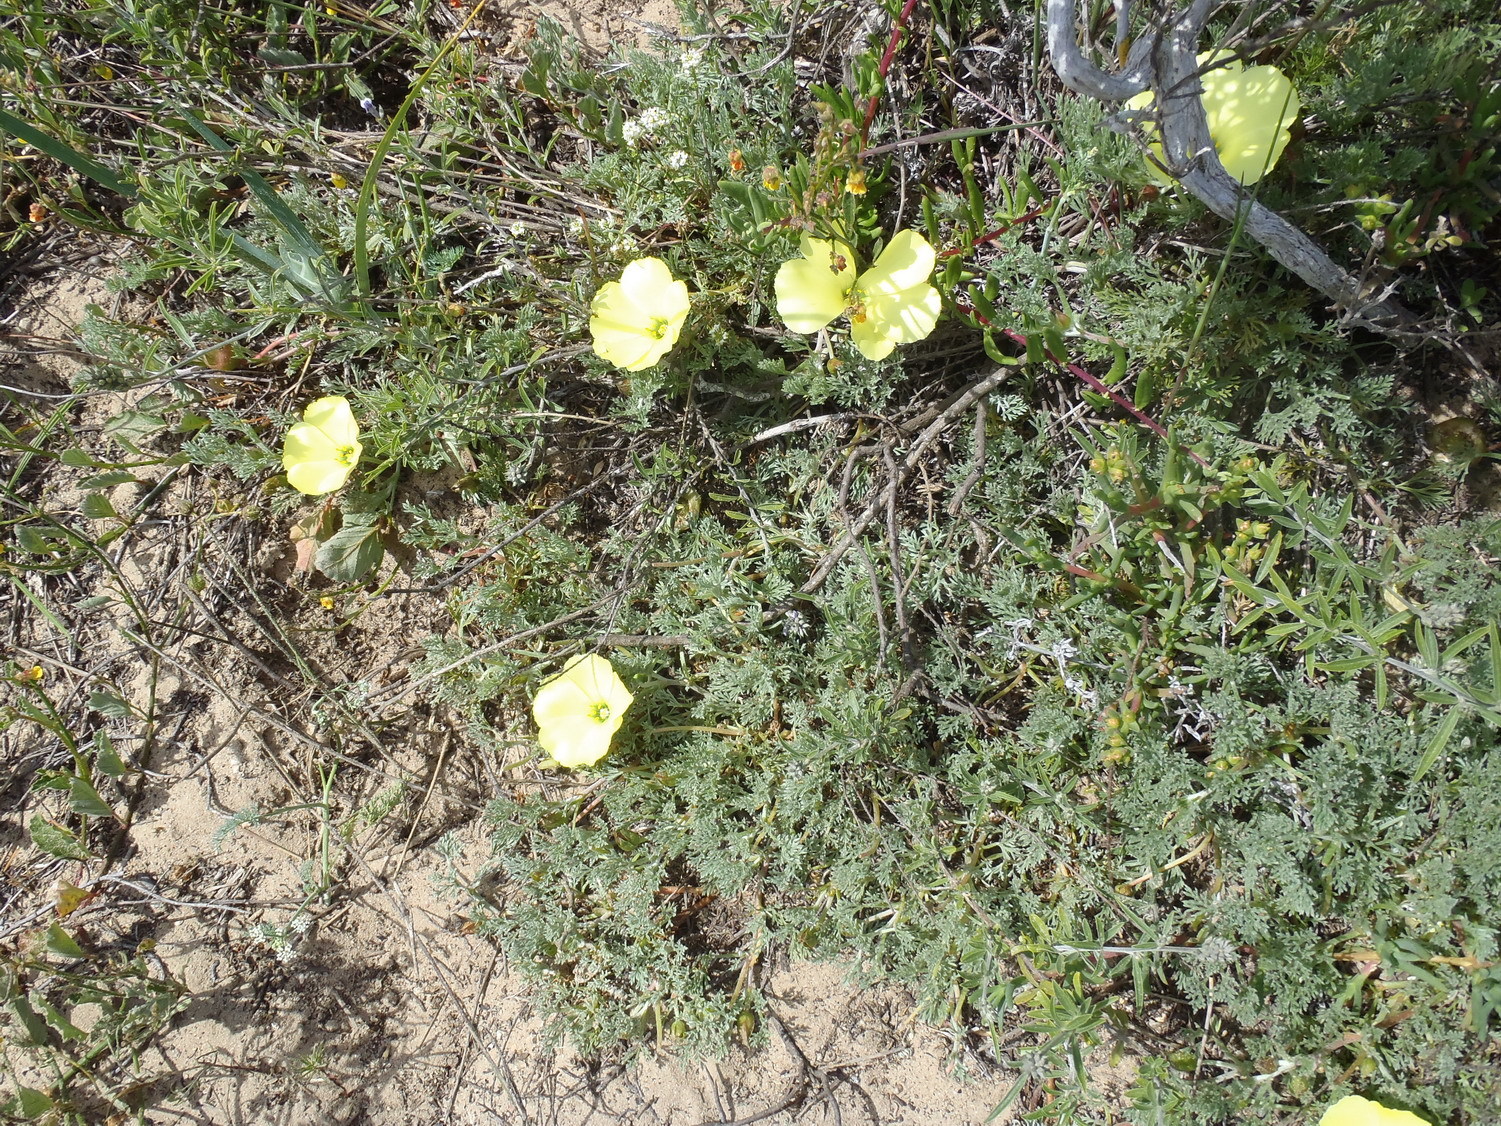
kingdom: Plantae
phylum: Tracheophyta
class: Magnoliopsida
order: Malvales
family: Neuradaceae
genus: Grielum
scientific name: Grielum grandiflorum
